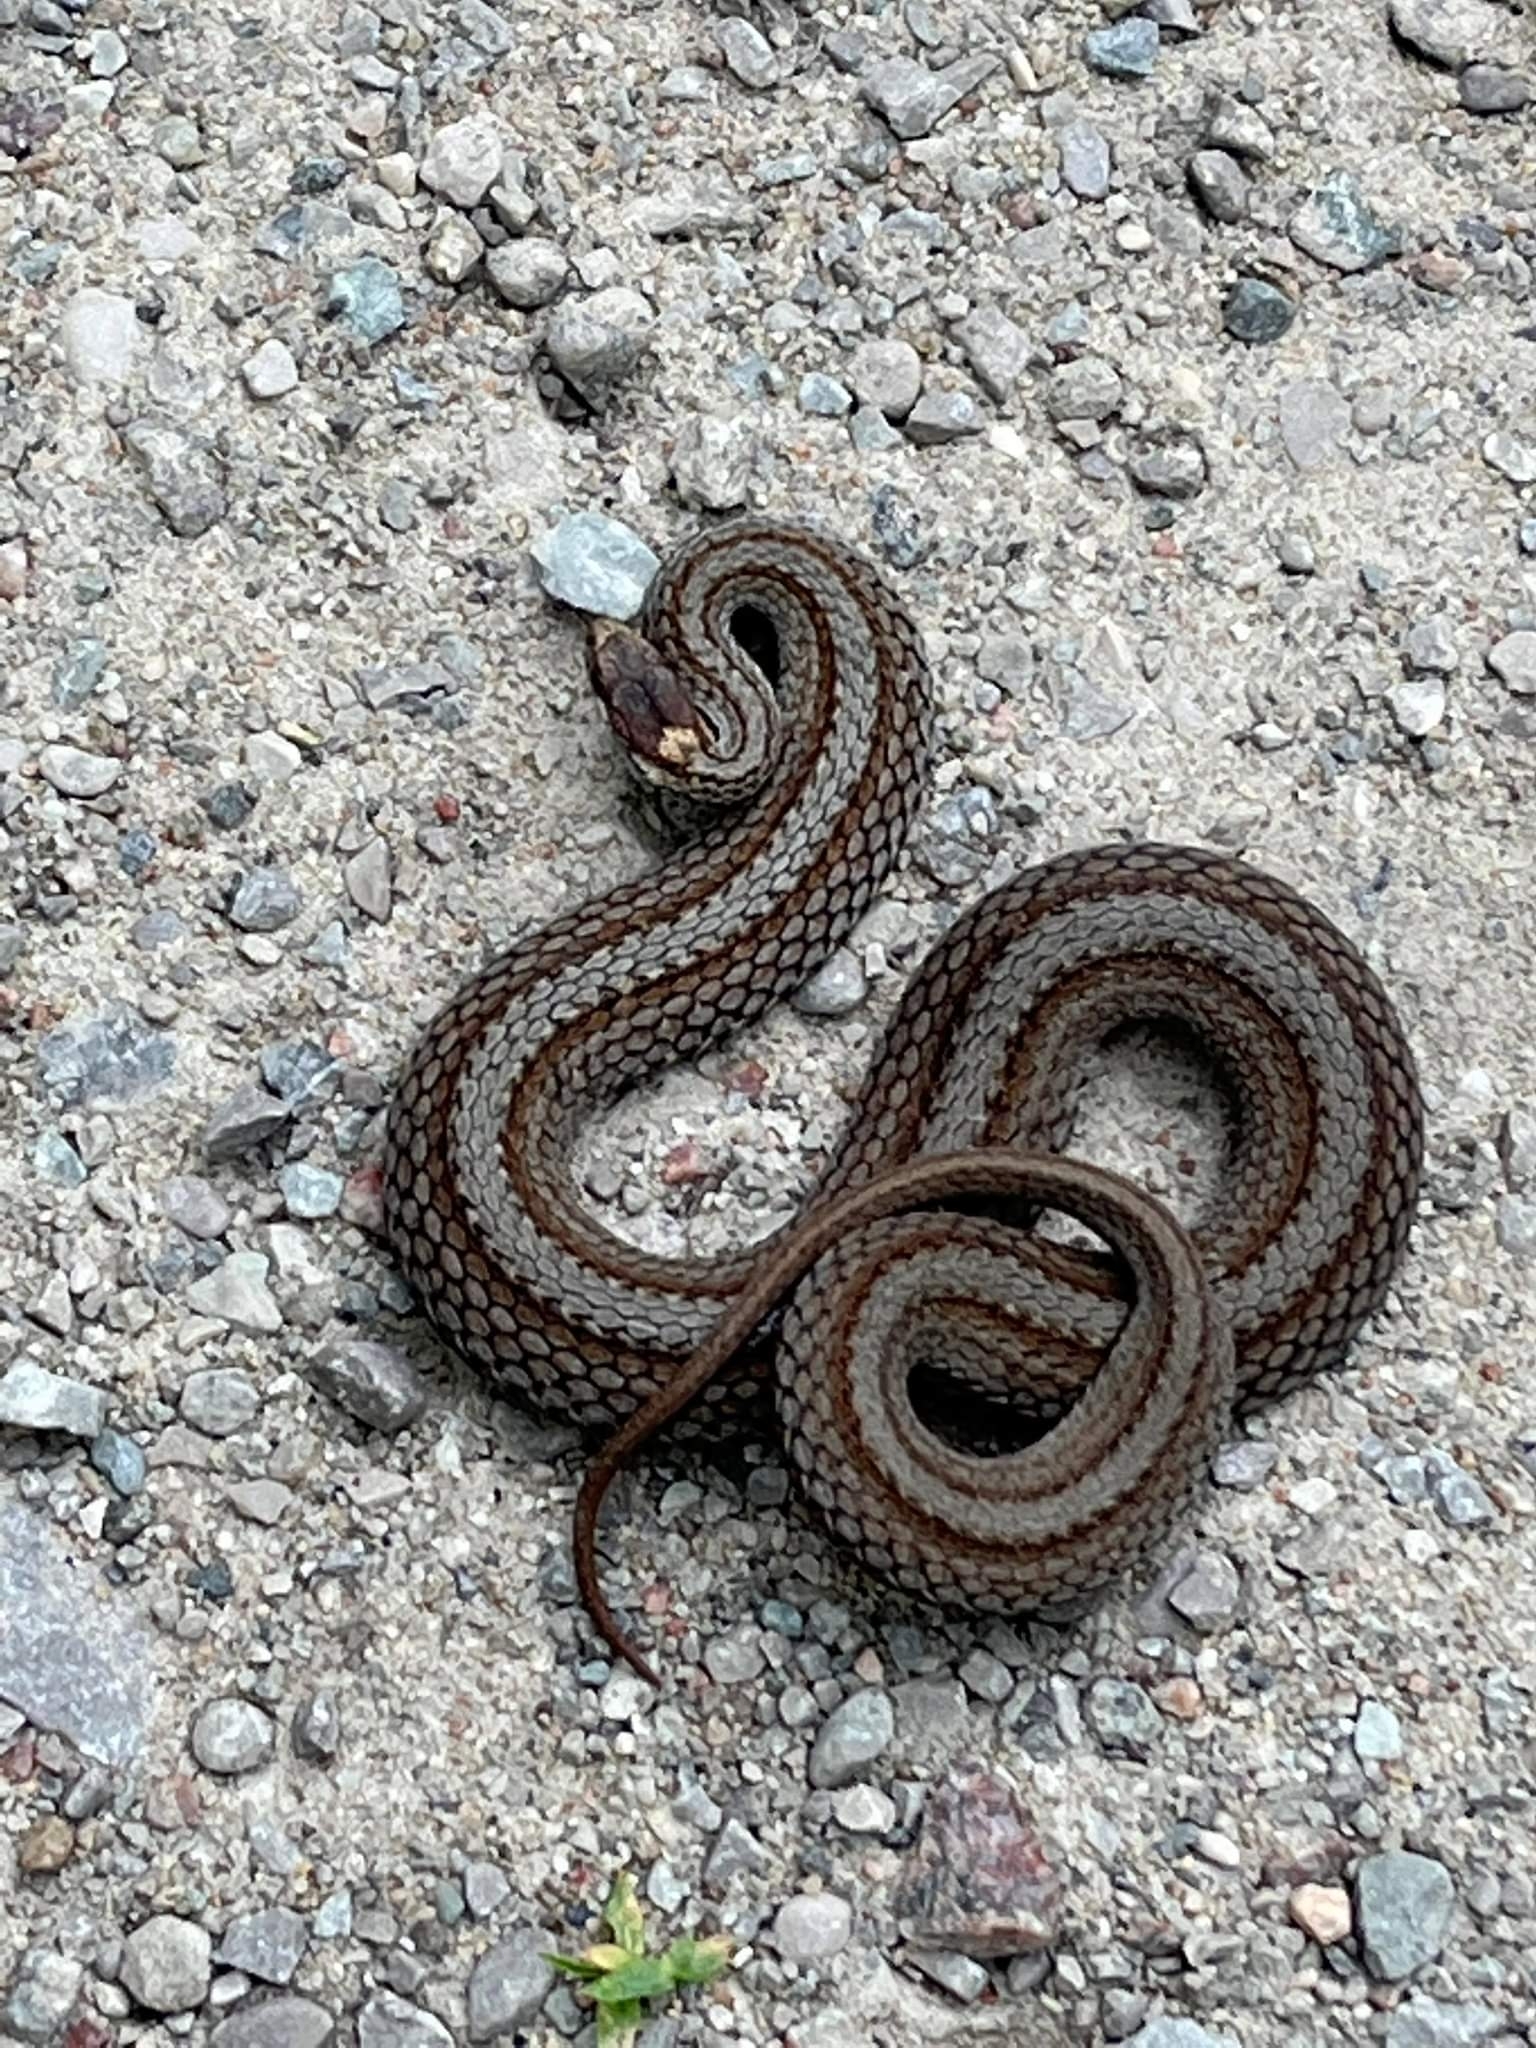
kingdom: Animalia
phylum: Chordata
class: Squamata
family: Colubridae
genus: Storeria
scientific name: Storeria occipitomaculata
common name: Redbelly snake
